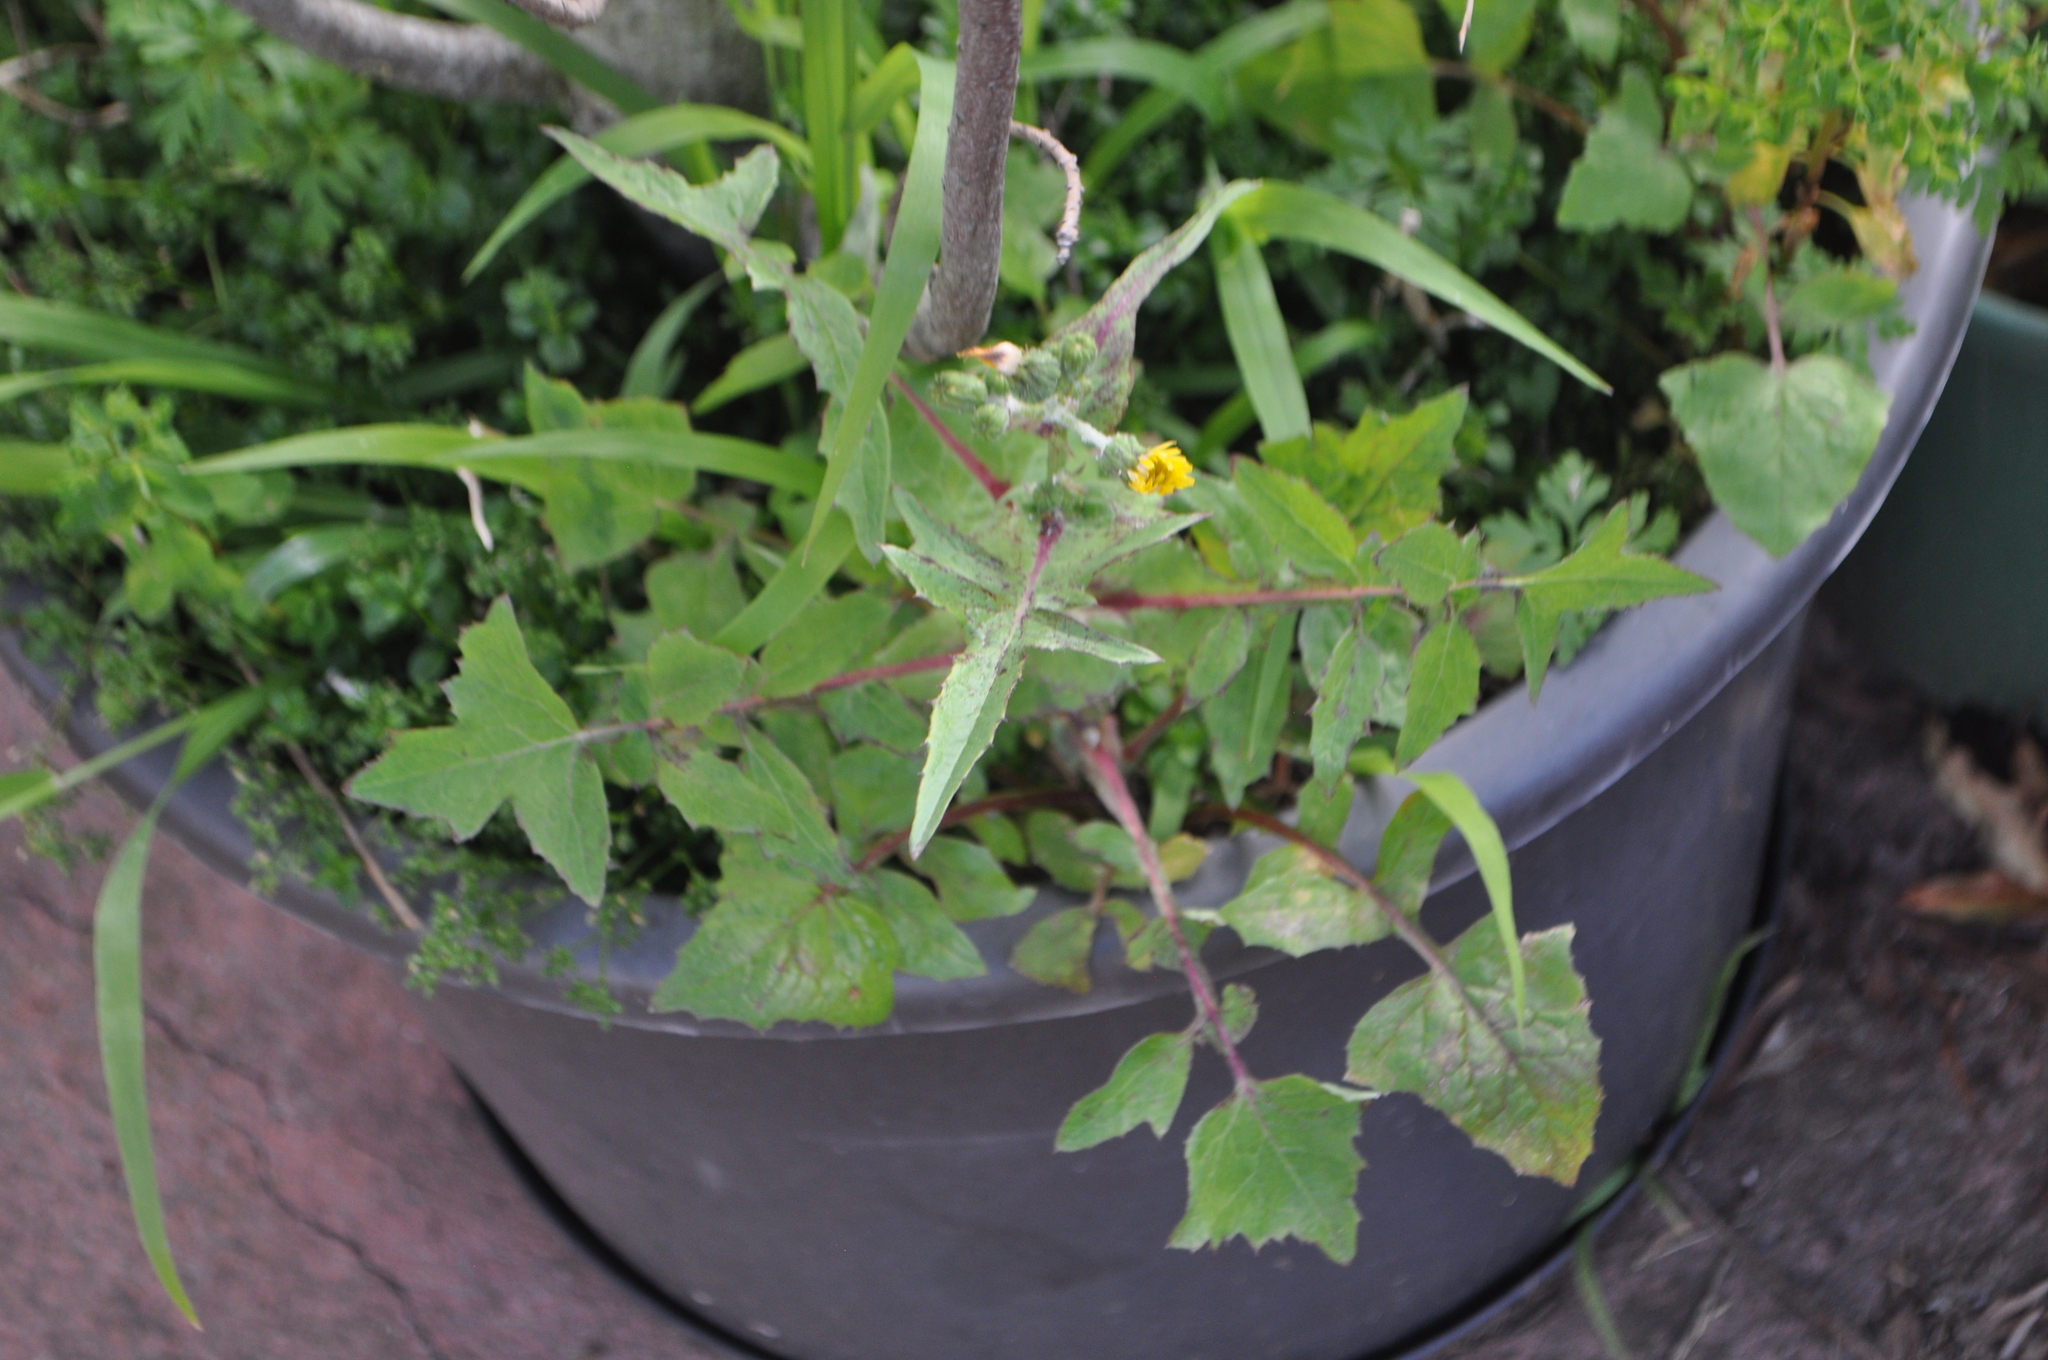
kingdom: Plantae
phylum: Tracheophyta
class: Magnoliopsida
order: Asterales
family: Asteraceae
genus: Sonchus
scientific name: Sonchus oleraceus
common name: Common sowthistle
